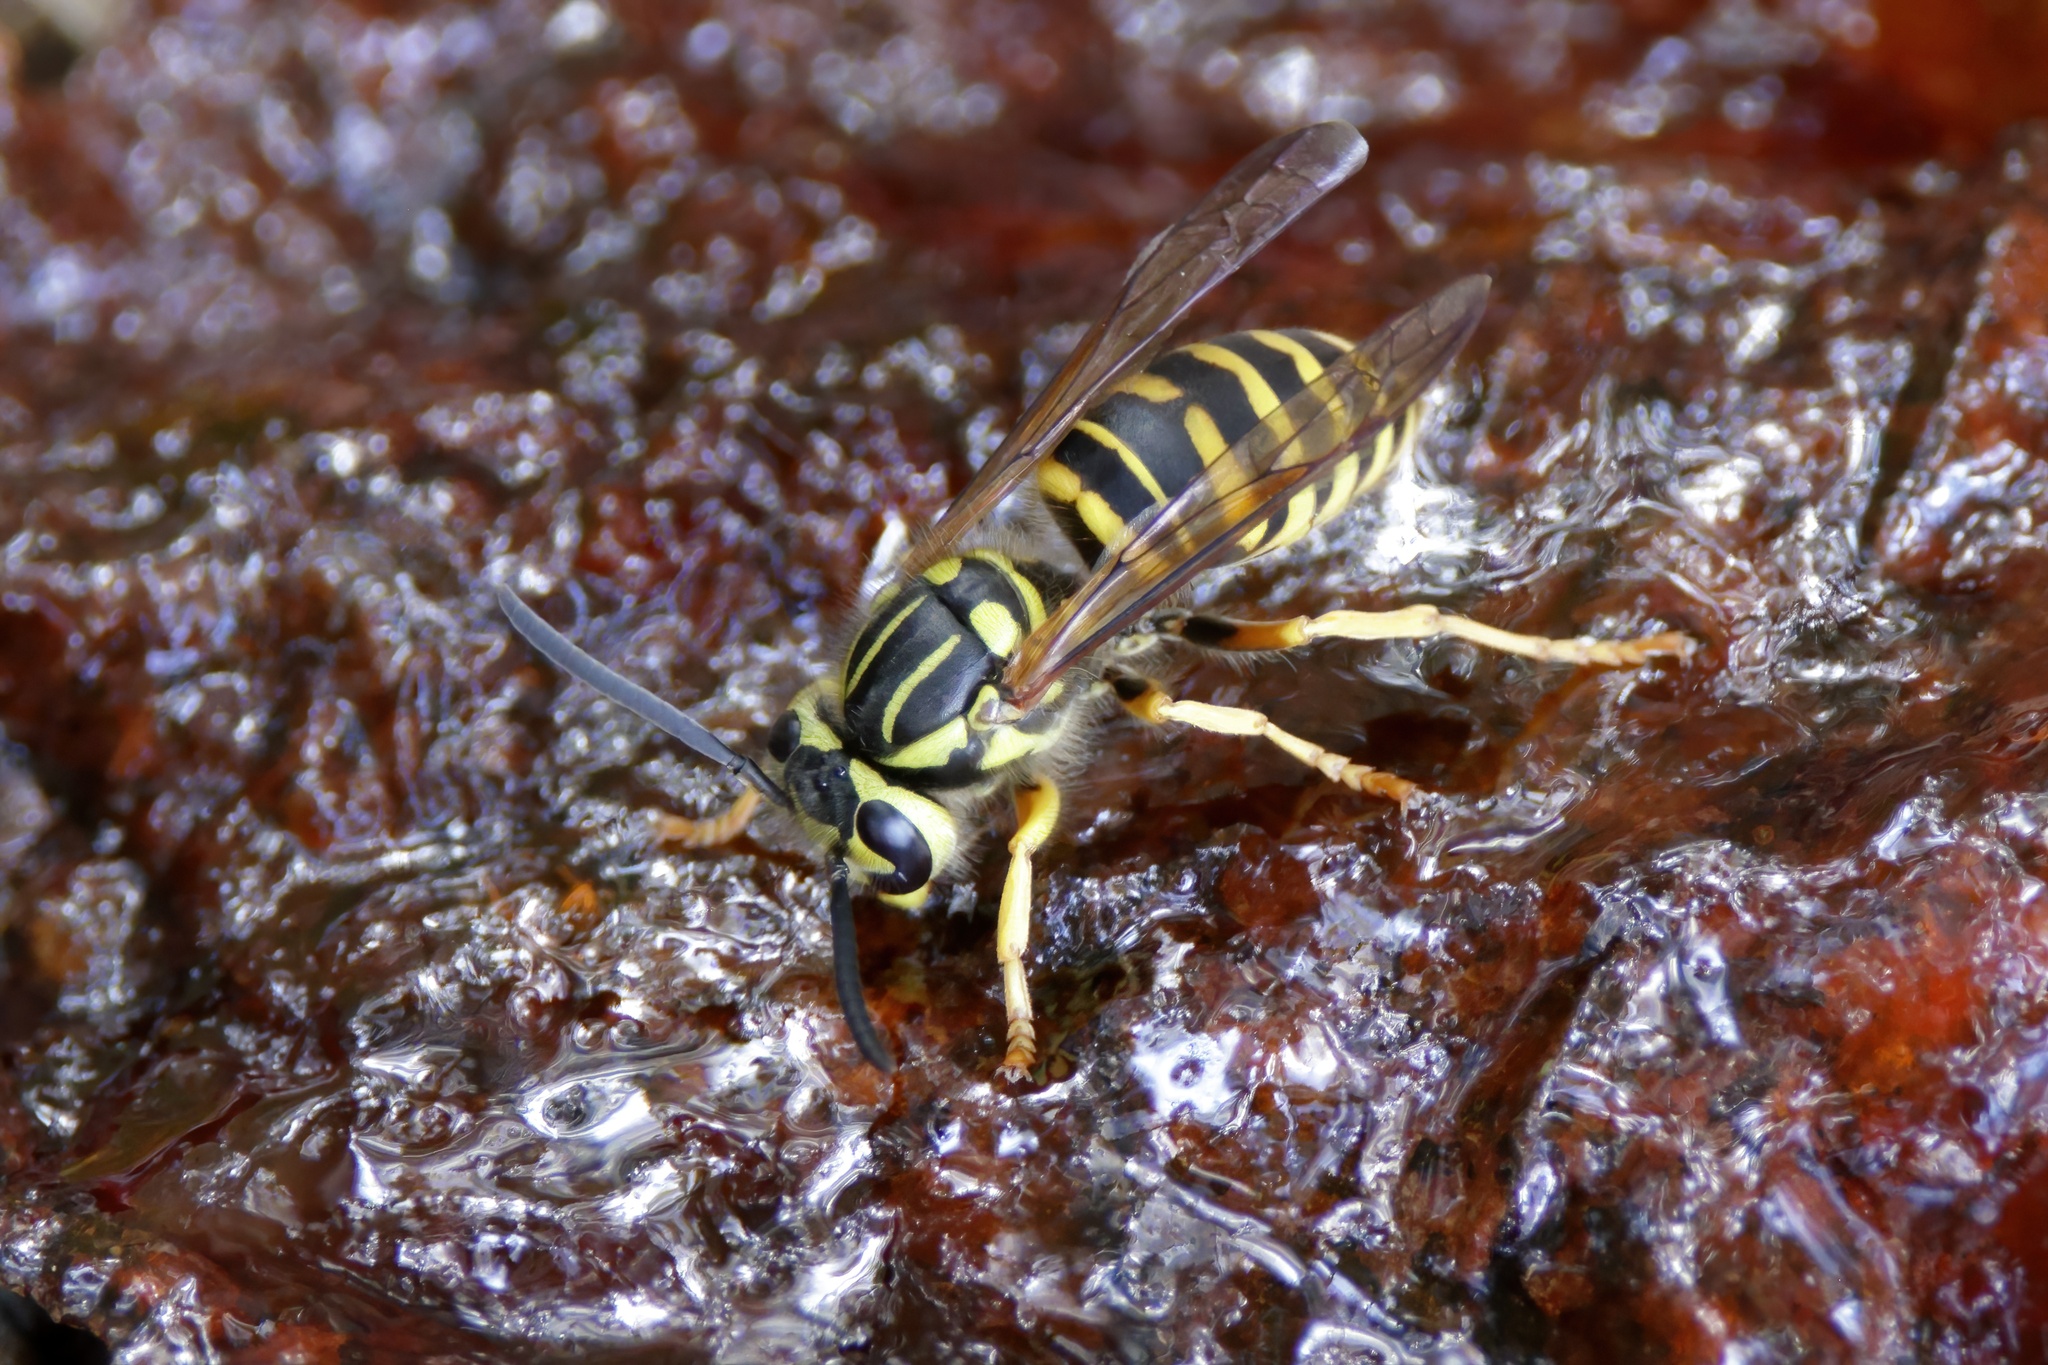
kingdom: Animalia
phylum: Arthropoda
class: Insecta
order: Hymenoptera
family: Vespidae
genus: Vespula
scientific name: Vespula squamosa
